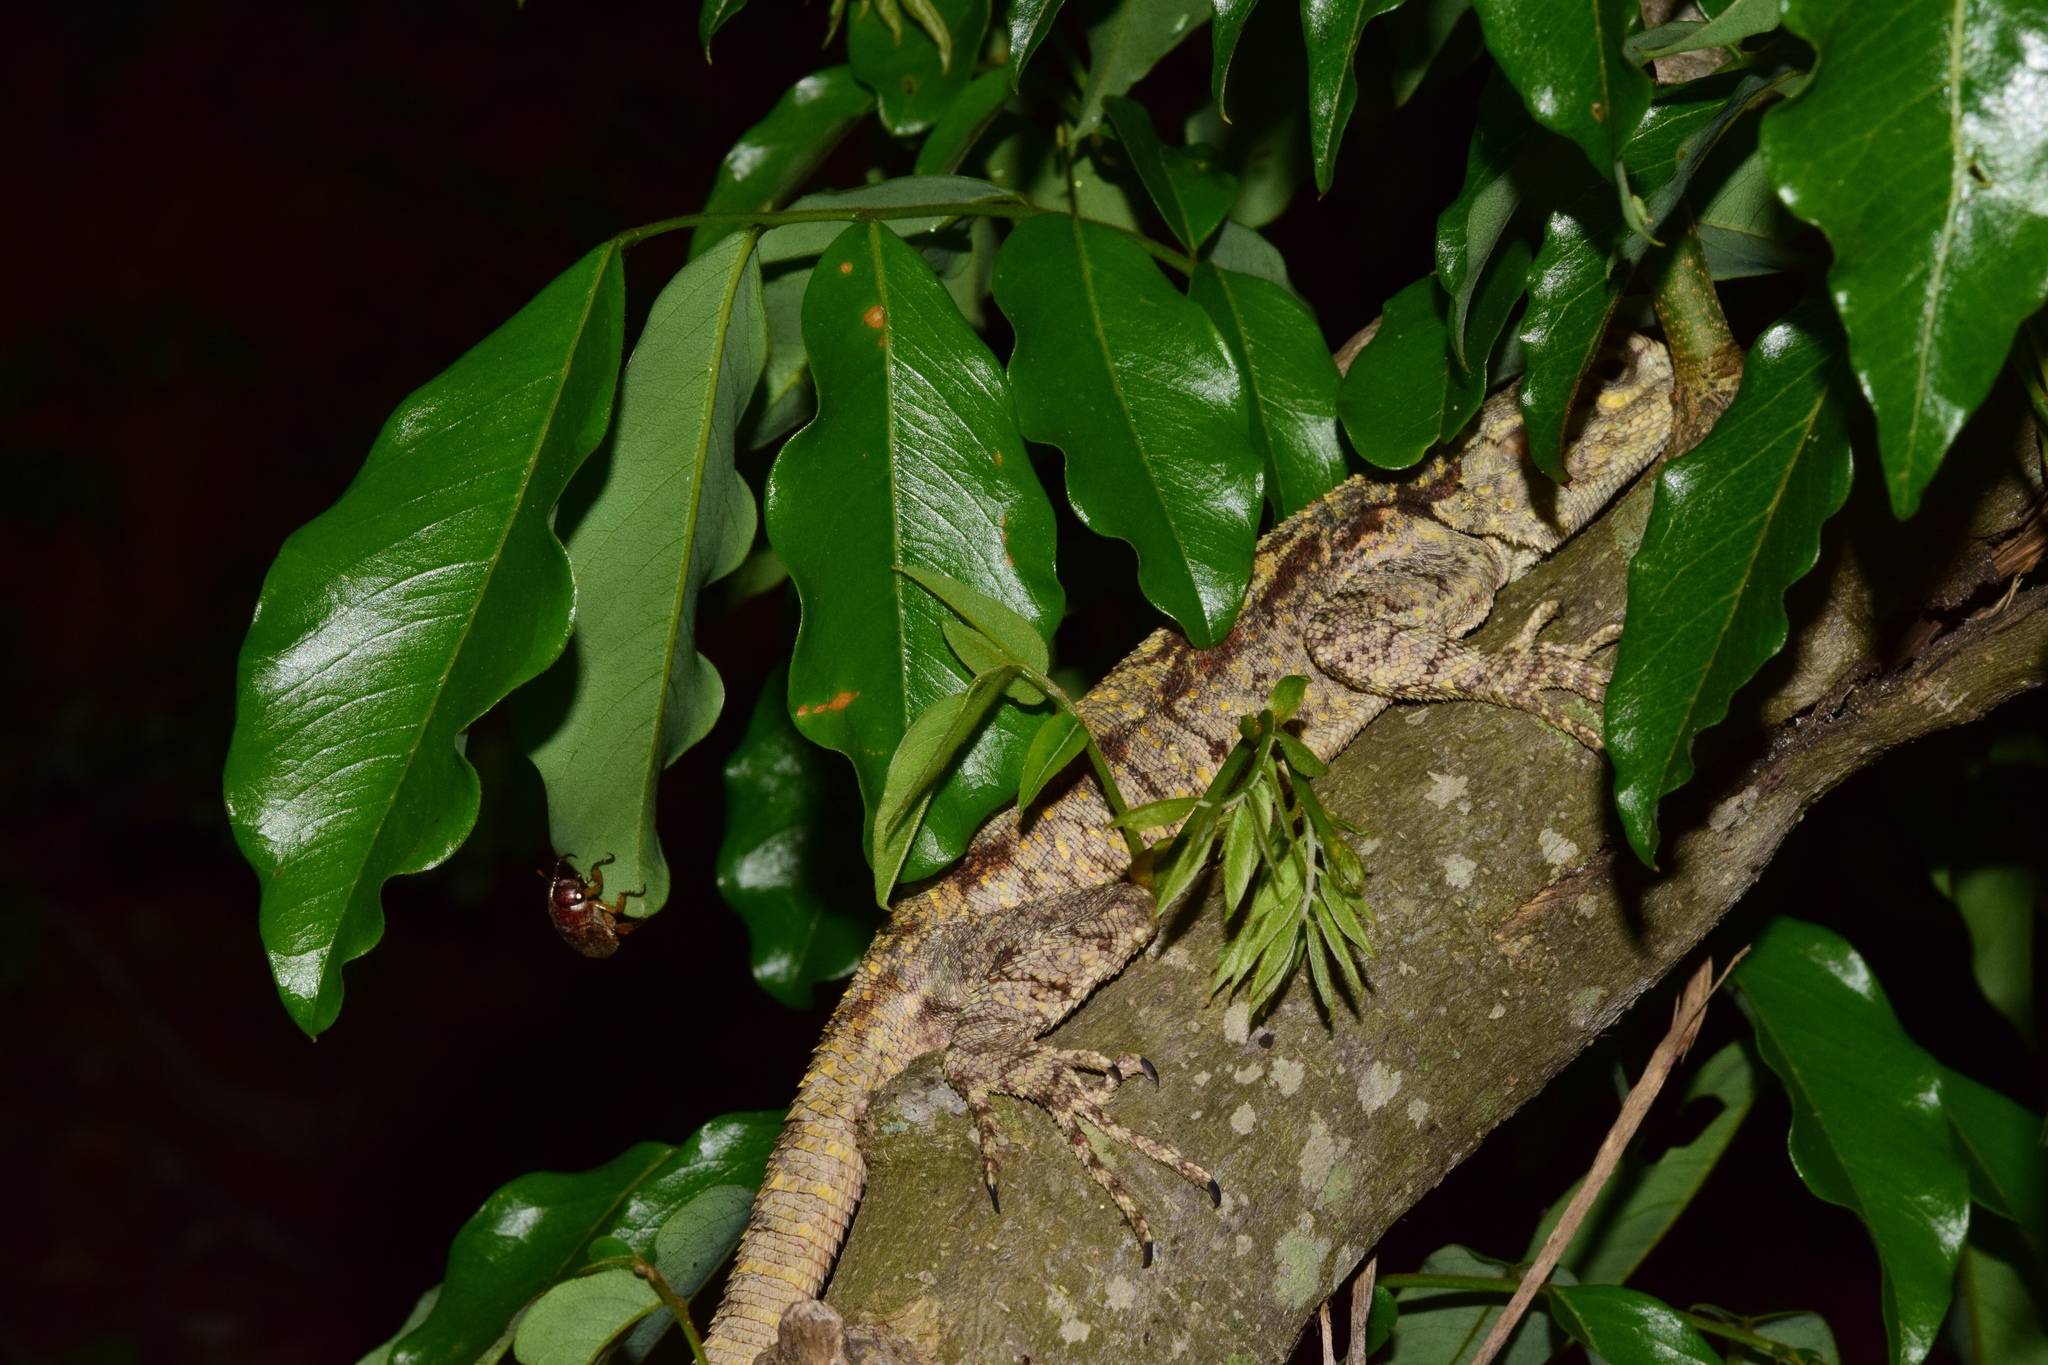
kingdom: Animalia
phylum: Chordata
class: Squamata
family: Agamidae
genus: Acanthocercus
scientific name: Acanthocercus atricollis
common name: Southern tree agama
